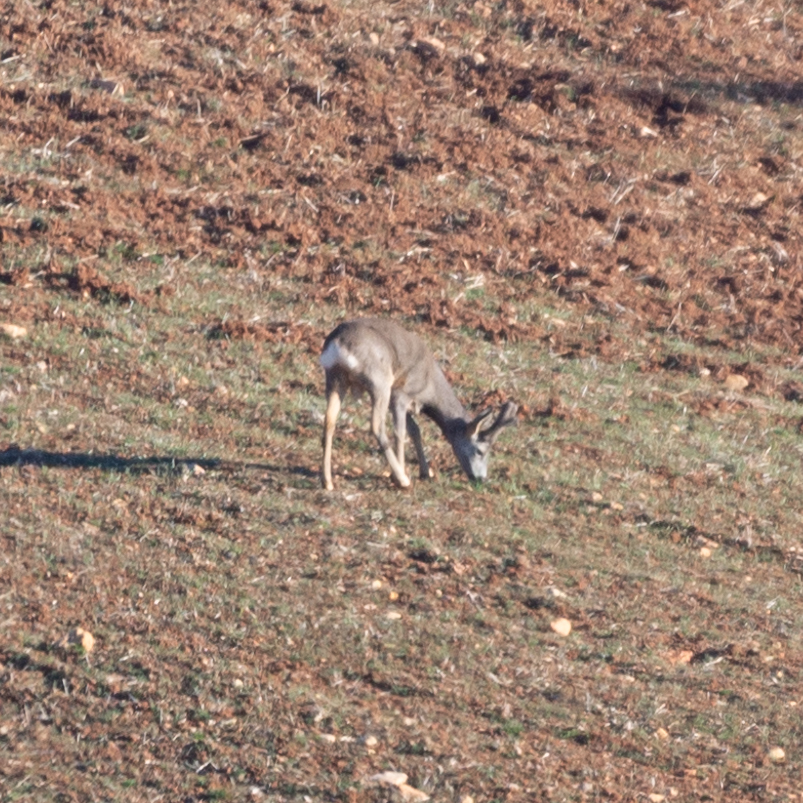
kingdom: Animalia
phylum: Chordata
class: Mammalia
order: Artiodactyla
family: Cervidae
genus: Capreolus
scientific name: Capreolus capreolus
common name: Western roe deer
